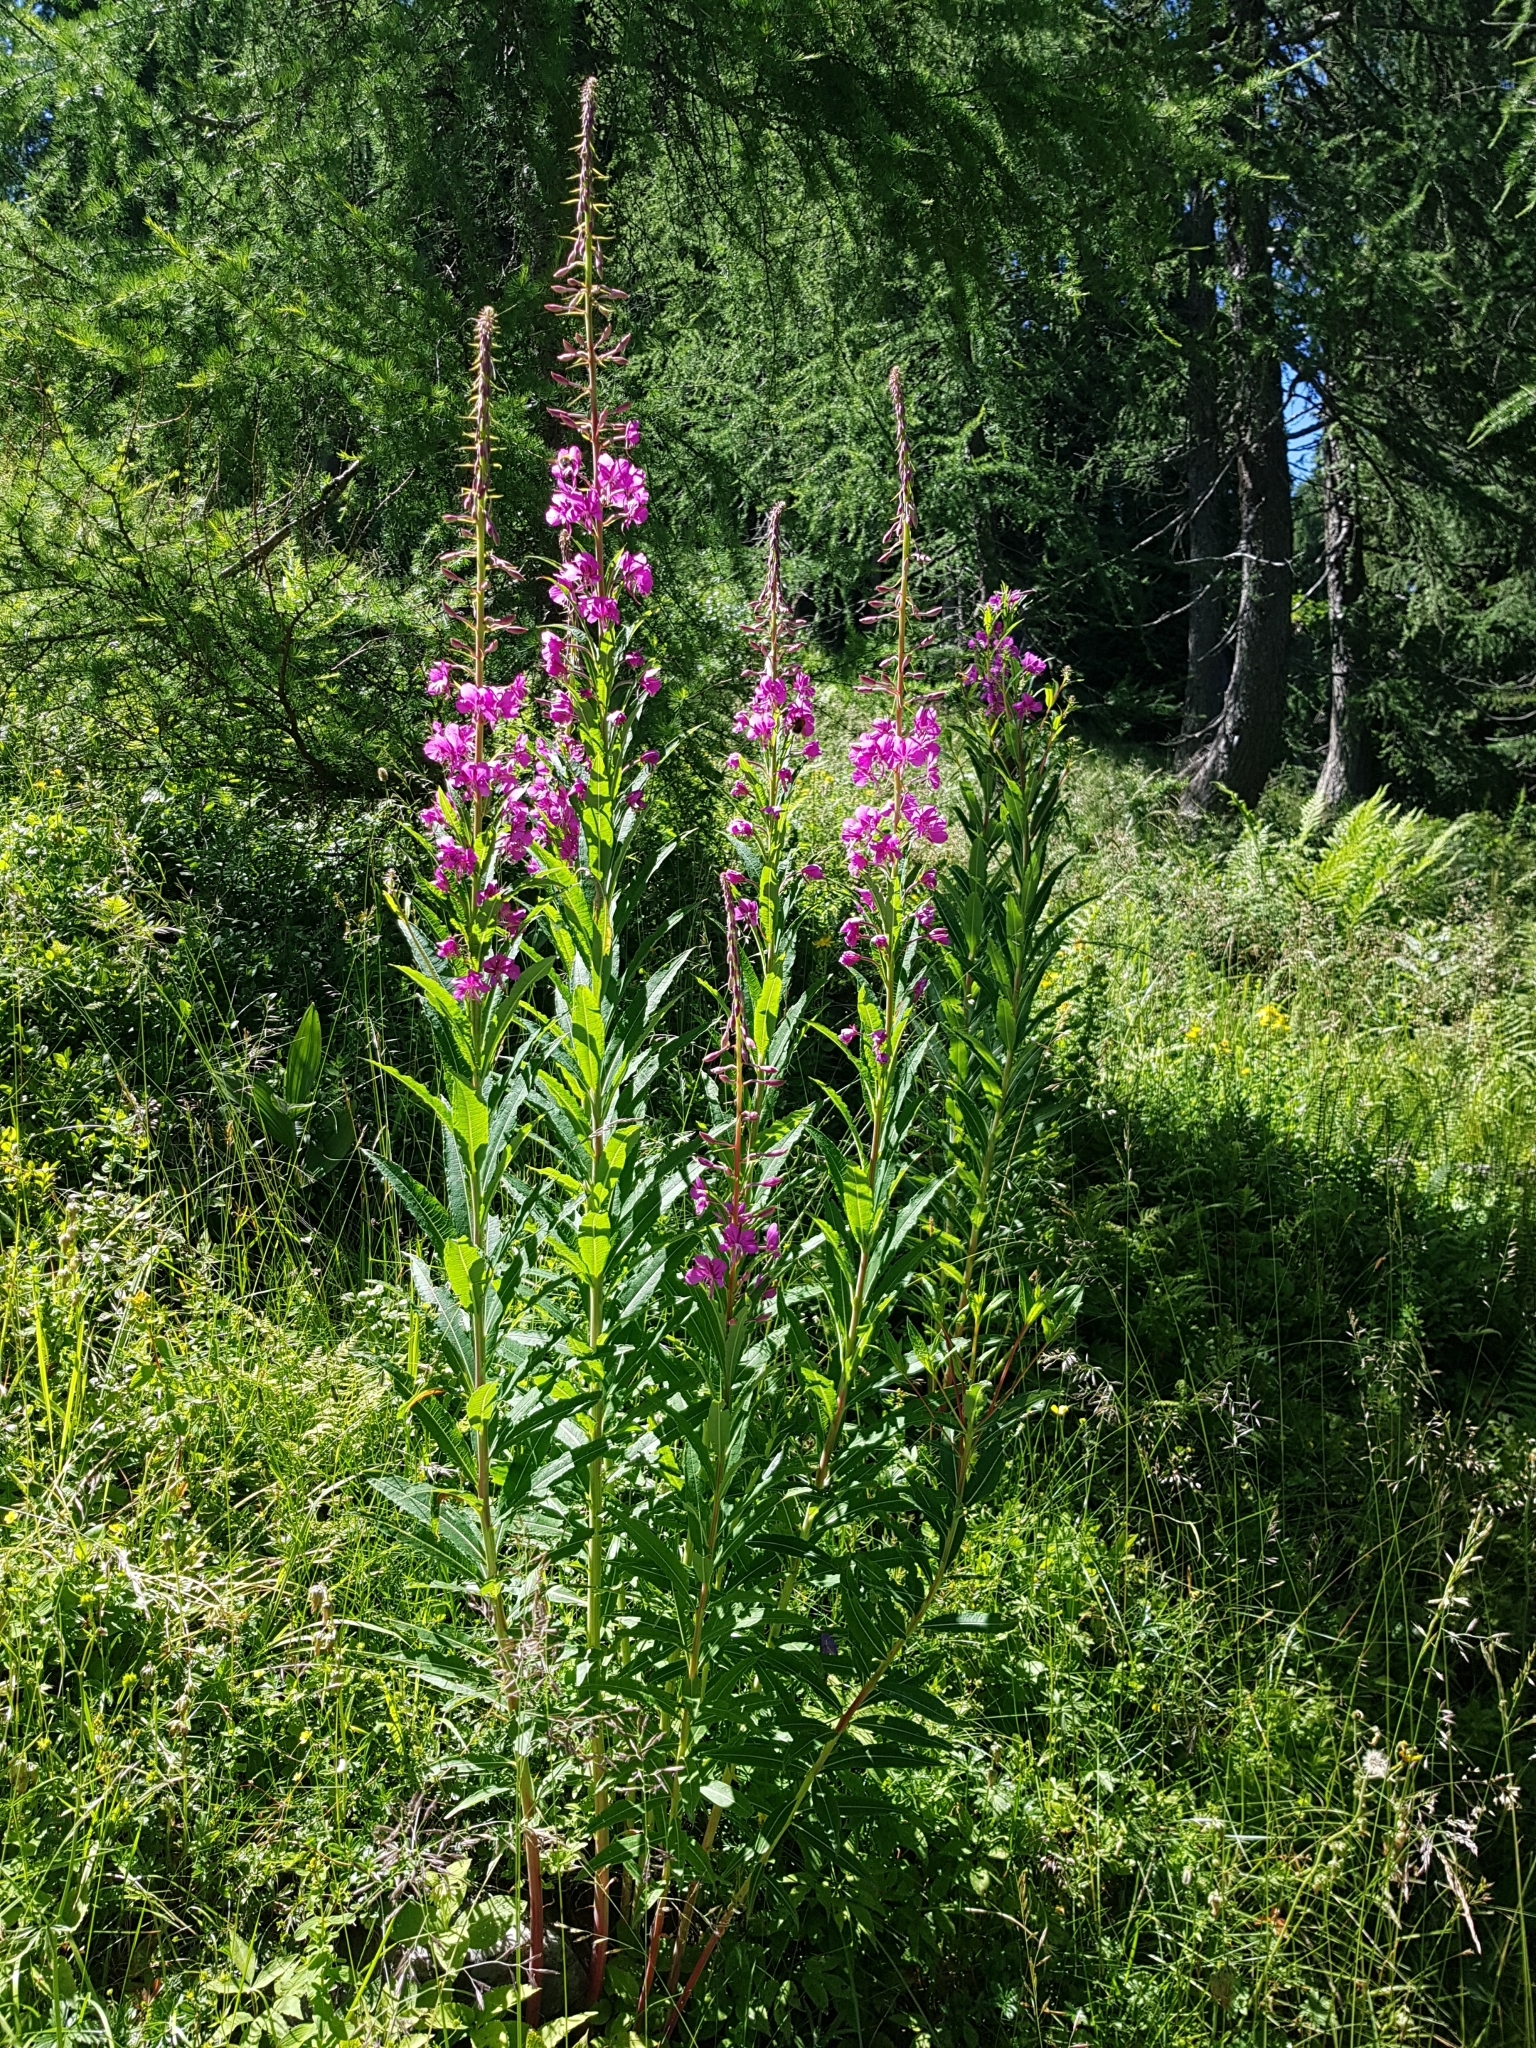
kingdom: Plantae
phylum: Tracheophyta
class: Magnoliopsida
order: Myrtales
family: Onagraceae
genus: Chamaenerion
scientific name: Chamaenerion angustifolium
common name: Fireweed
